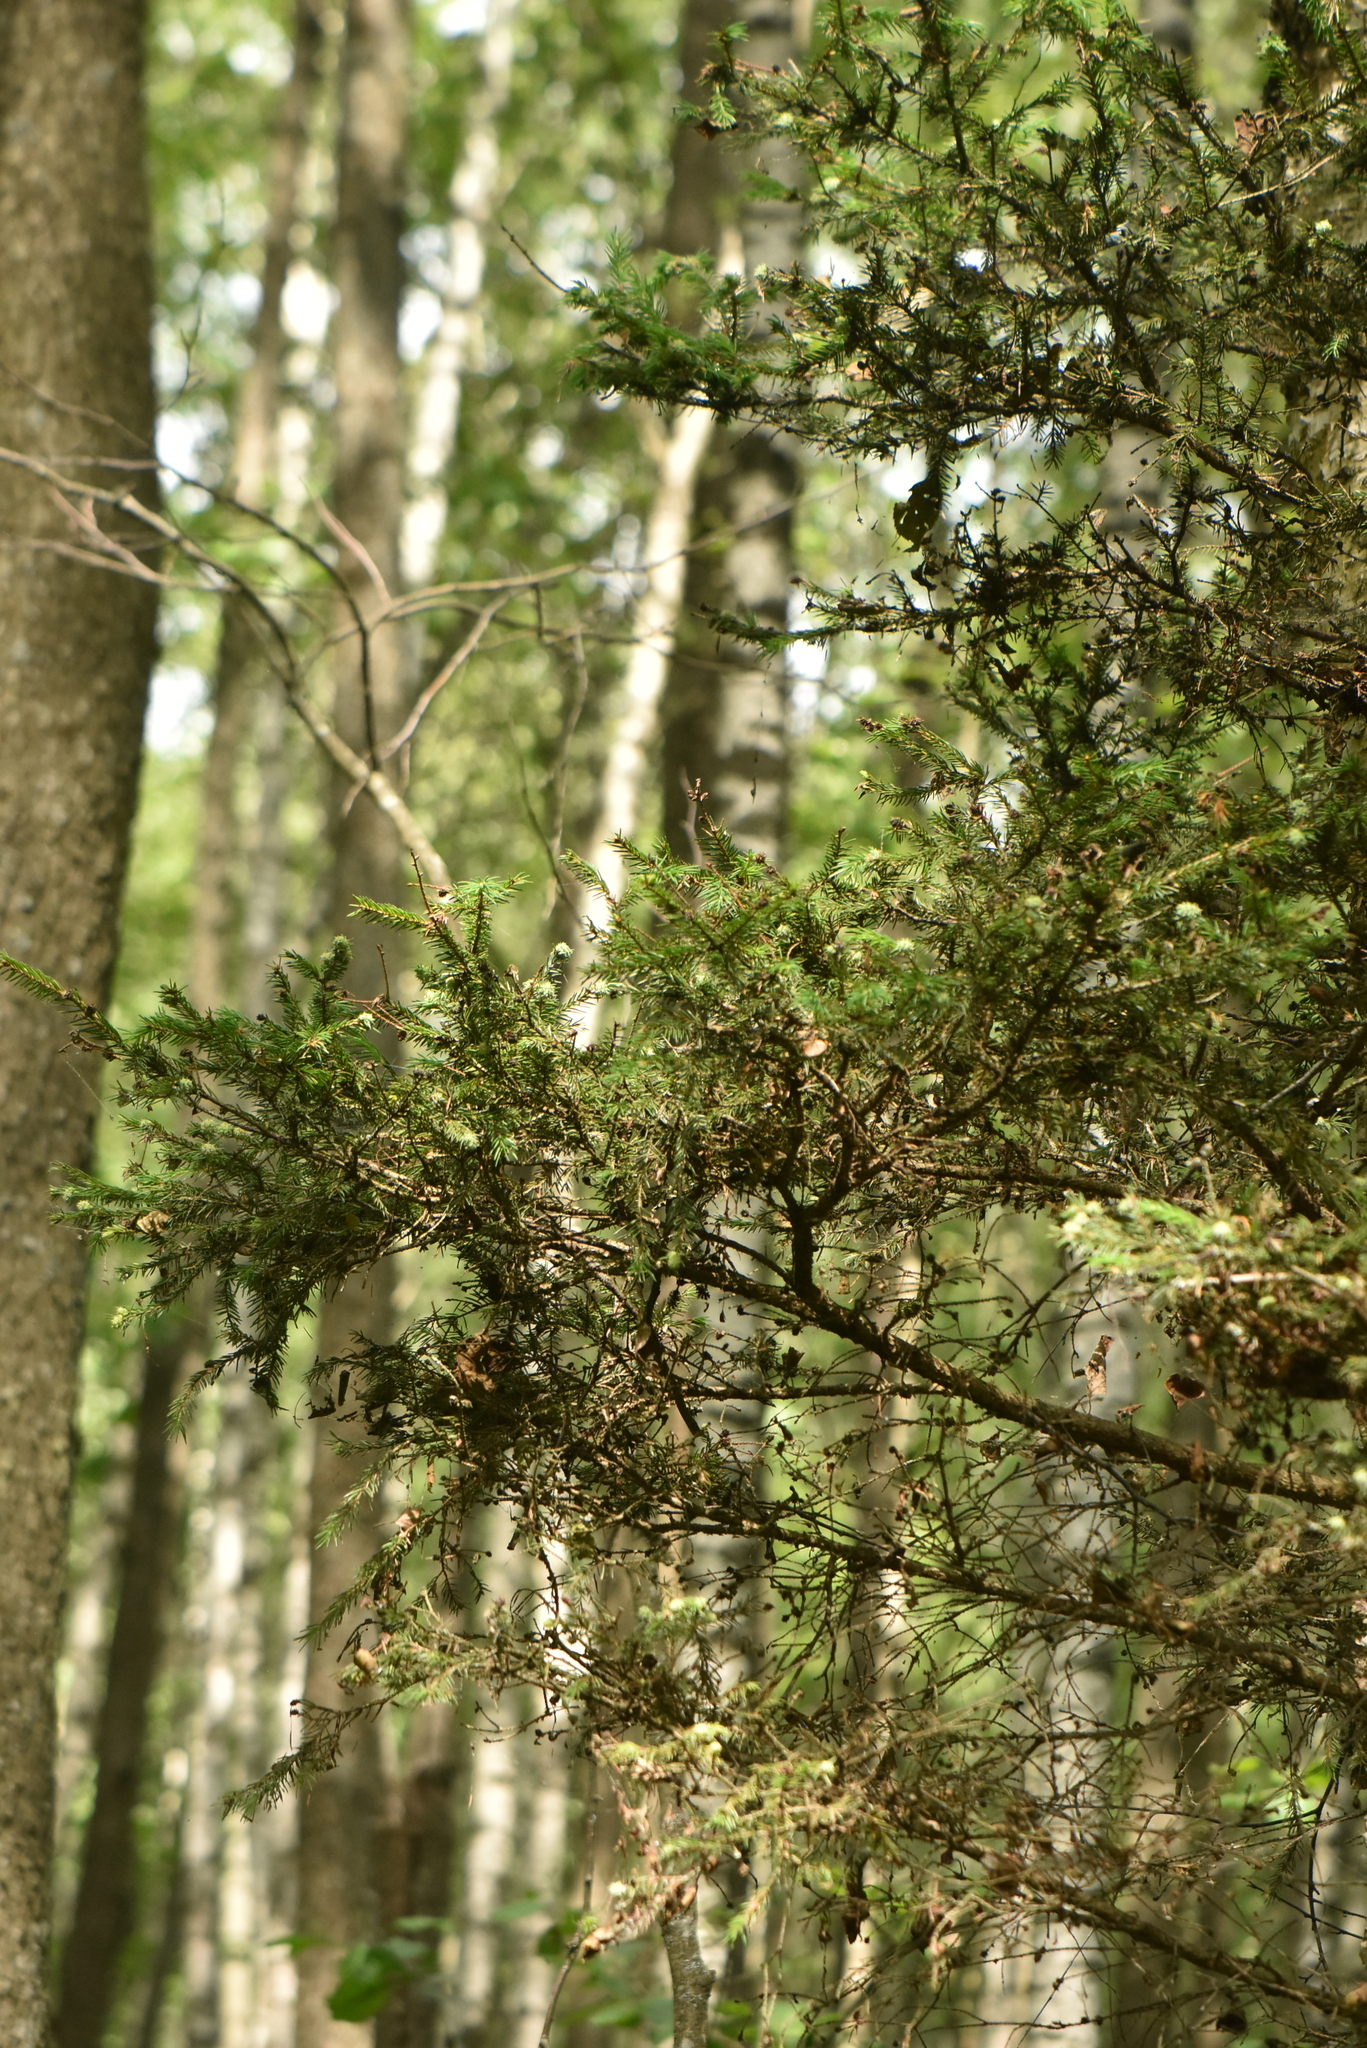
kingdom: Plantae
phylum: Tracheophyta
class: Pinopsida
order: Pinales
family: Pinaceae
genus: Picea
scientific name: Picea abies
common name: Norway spruce
